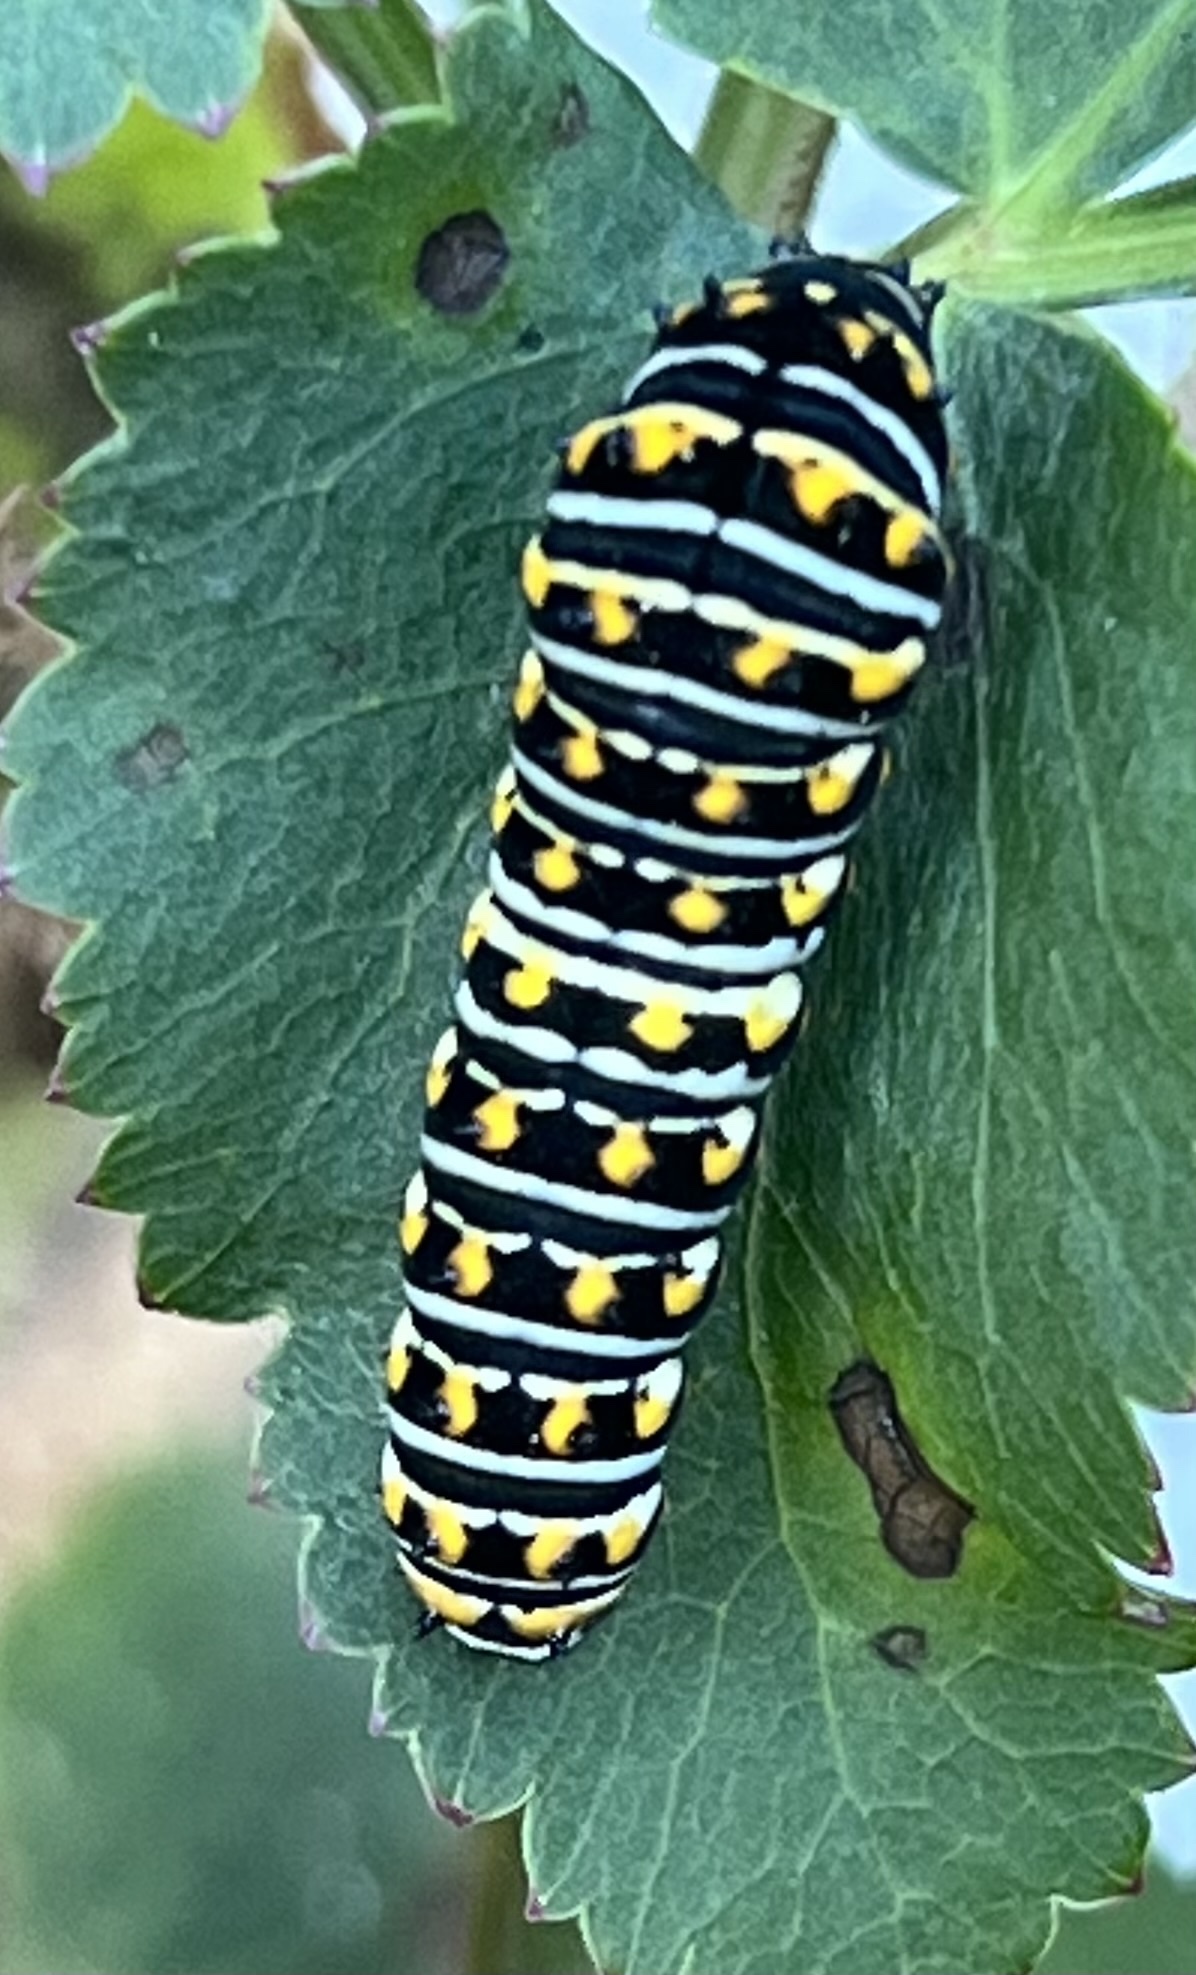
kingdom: Animalia
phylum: Arthropoda
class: Insecta
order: Lepidoptera
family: Papilionidae
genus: Papilio
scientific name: Papilio polyxenes
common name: Black swallowtail
